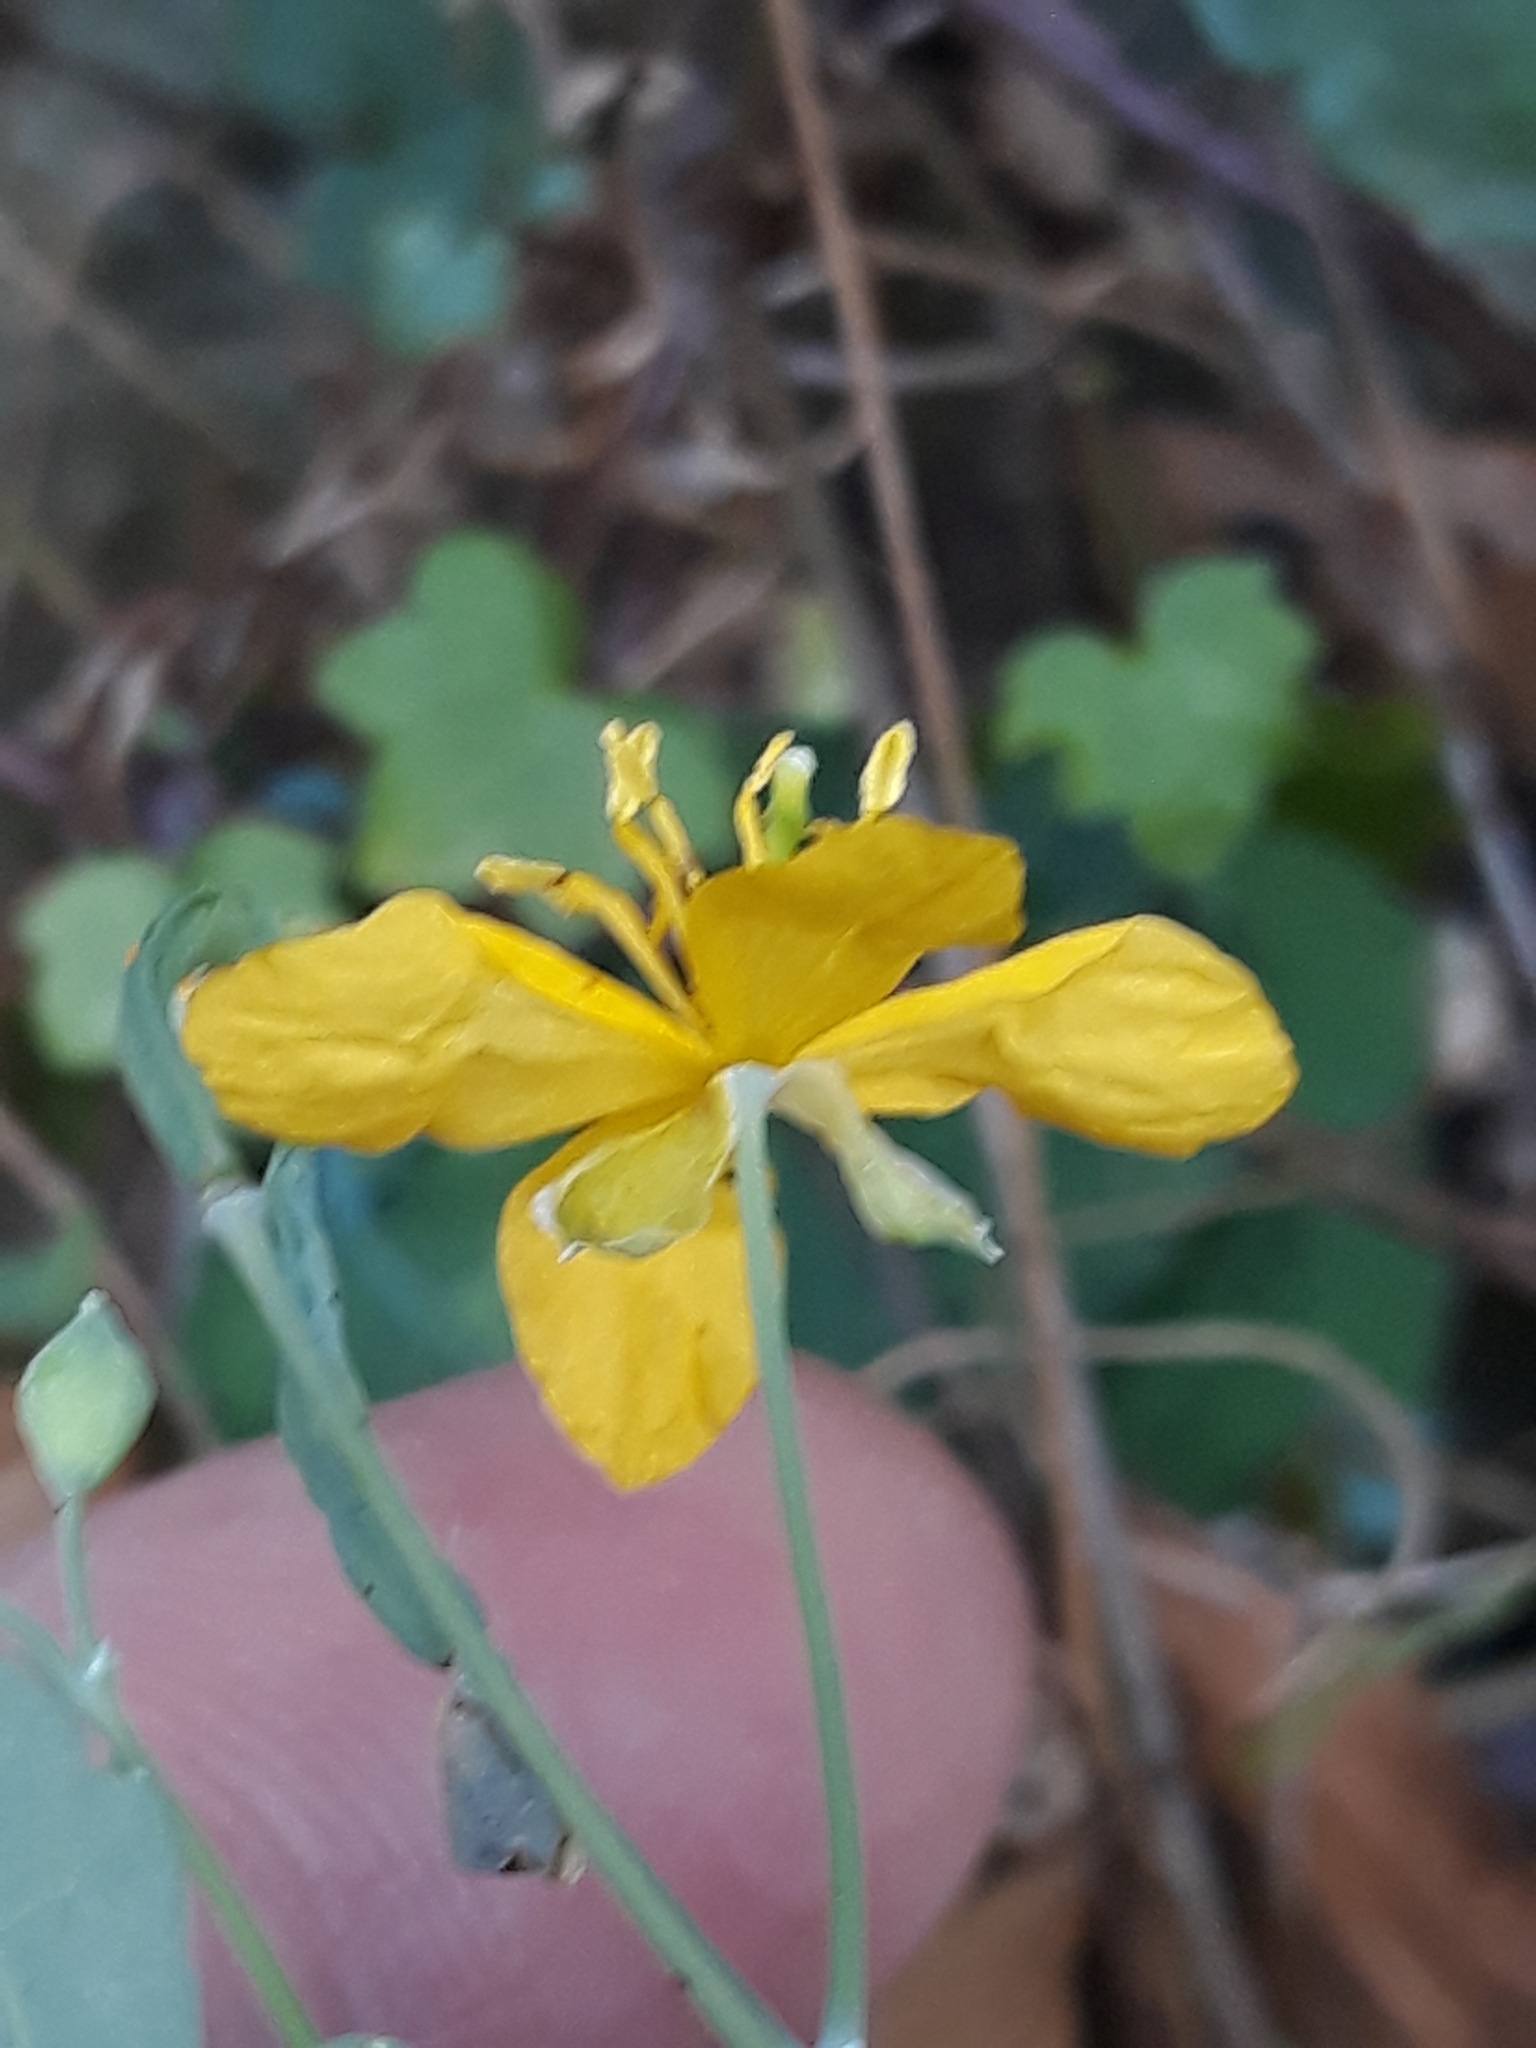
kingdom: Plantae
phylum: Tracheophyta
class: Magnoliopsida
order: Ranunculales
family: Papaveraceae
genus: Chelidonium
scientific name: Chelidonium majus
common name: Greater celandine
